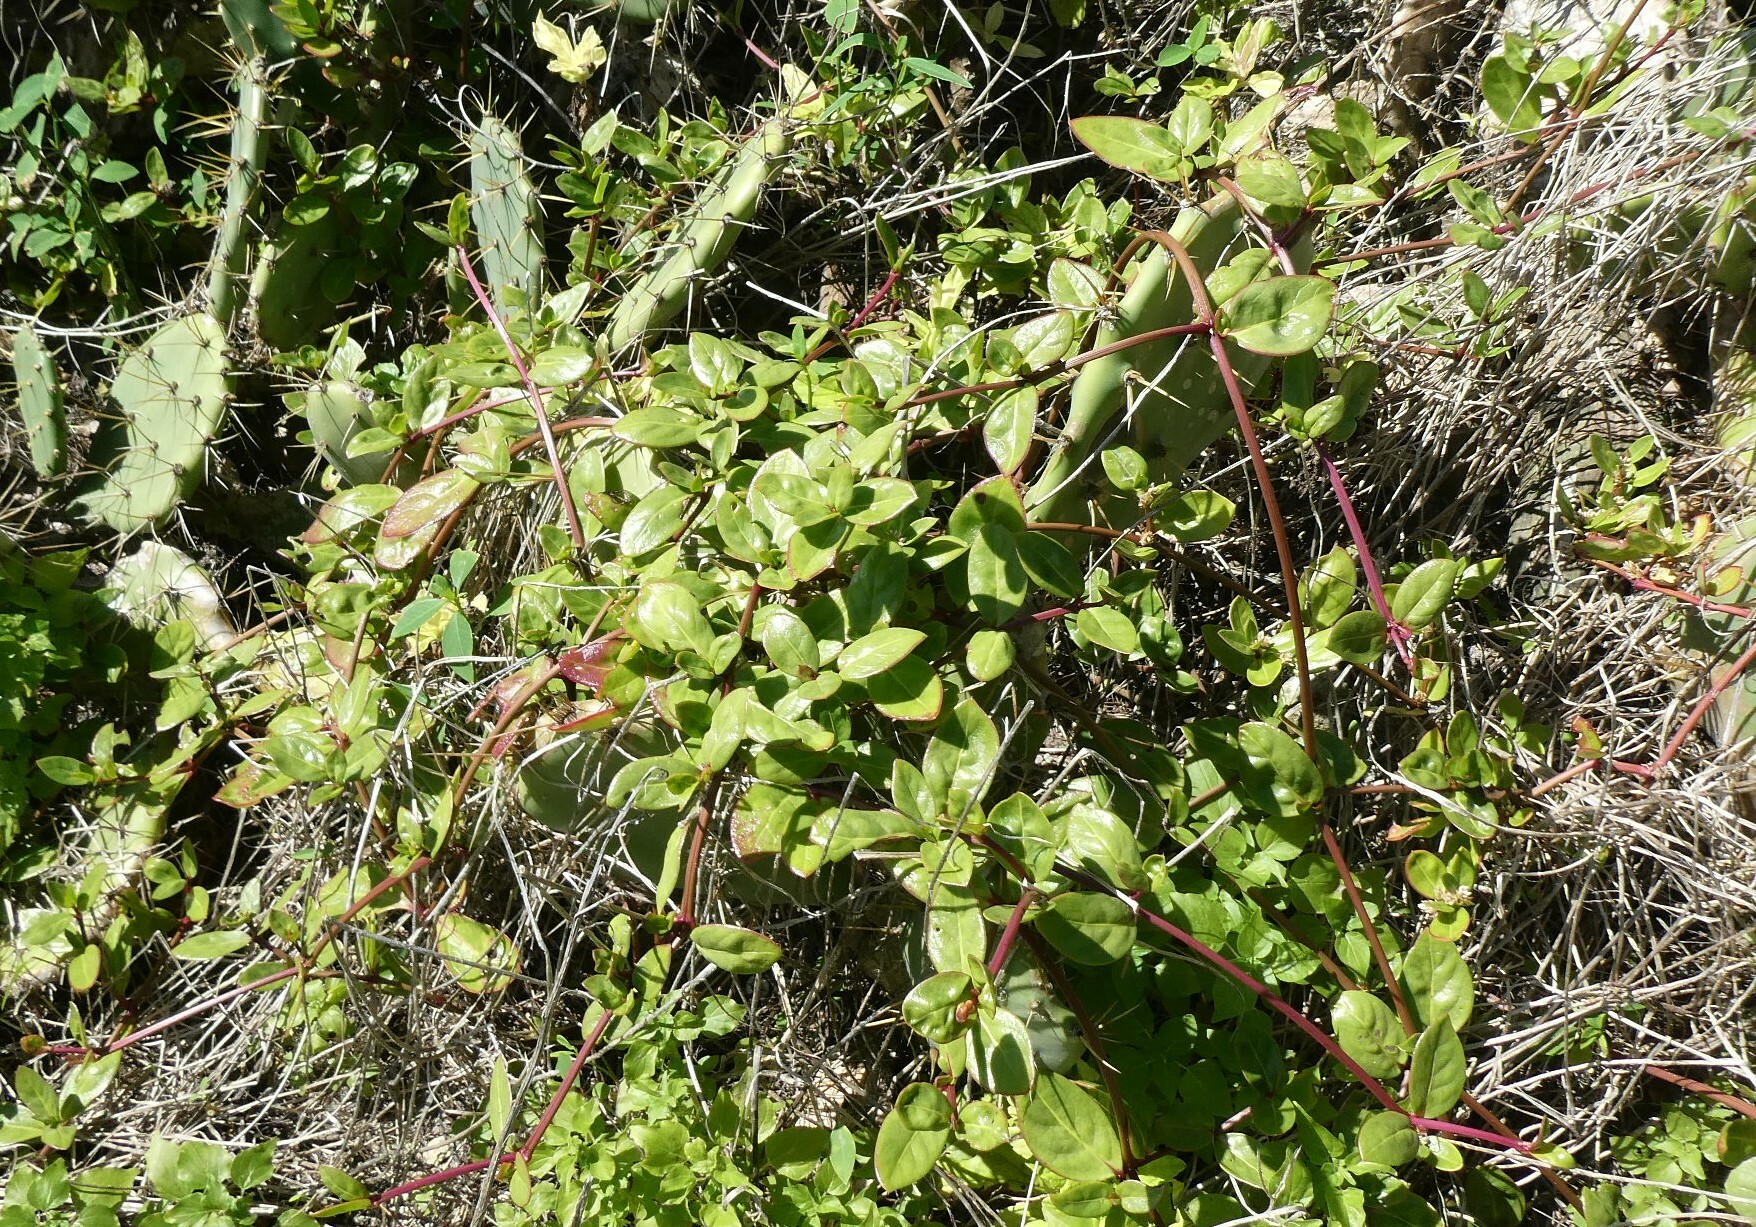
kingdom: Plantae
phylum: Tracheophyta
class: Magnoliopsida
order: Caryophyllales
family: Basellaceae
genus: Basella
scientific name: Basella alba
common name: Indian spinach
